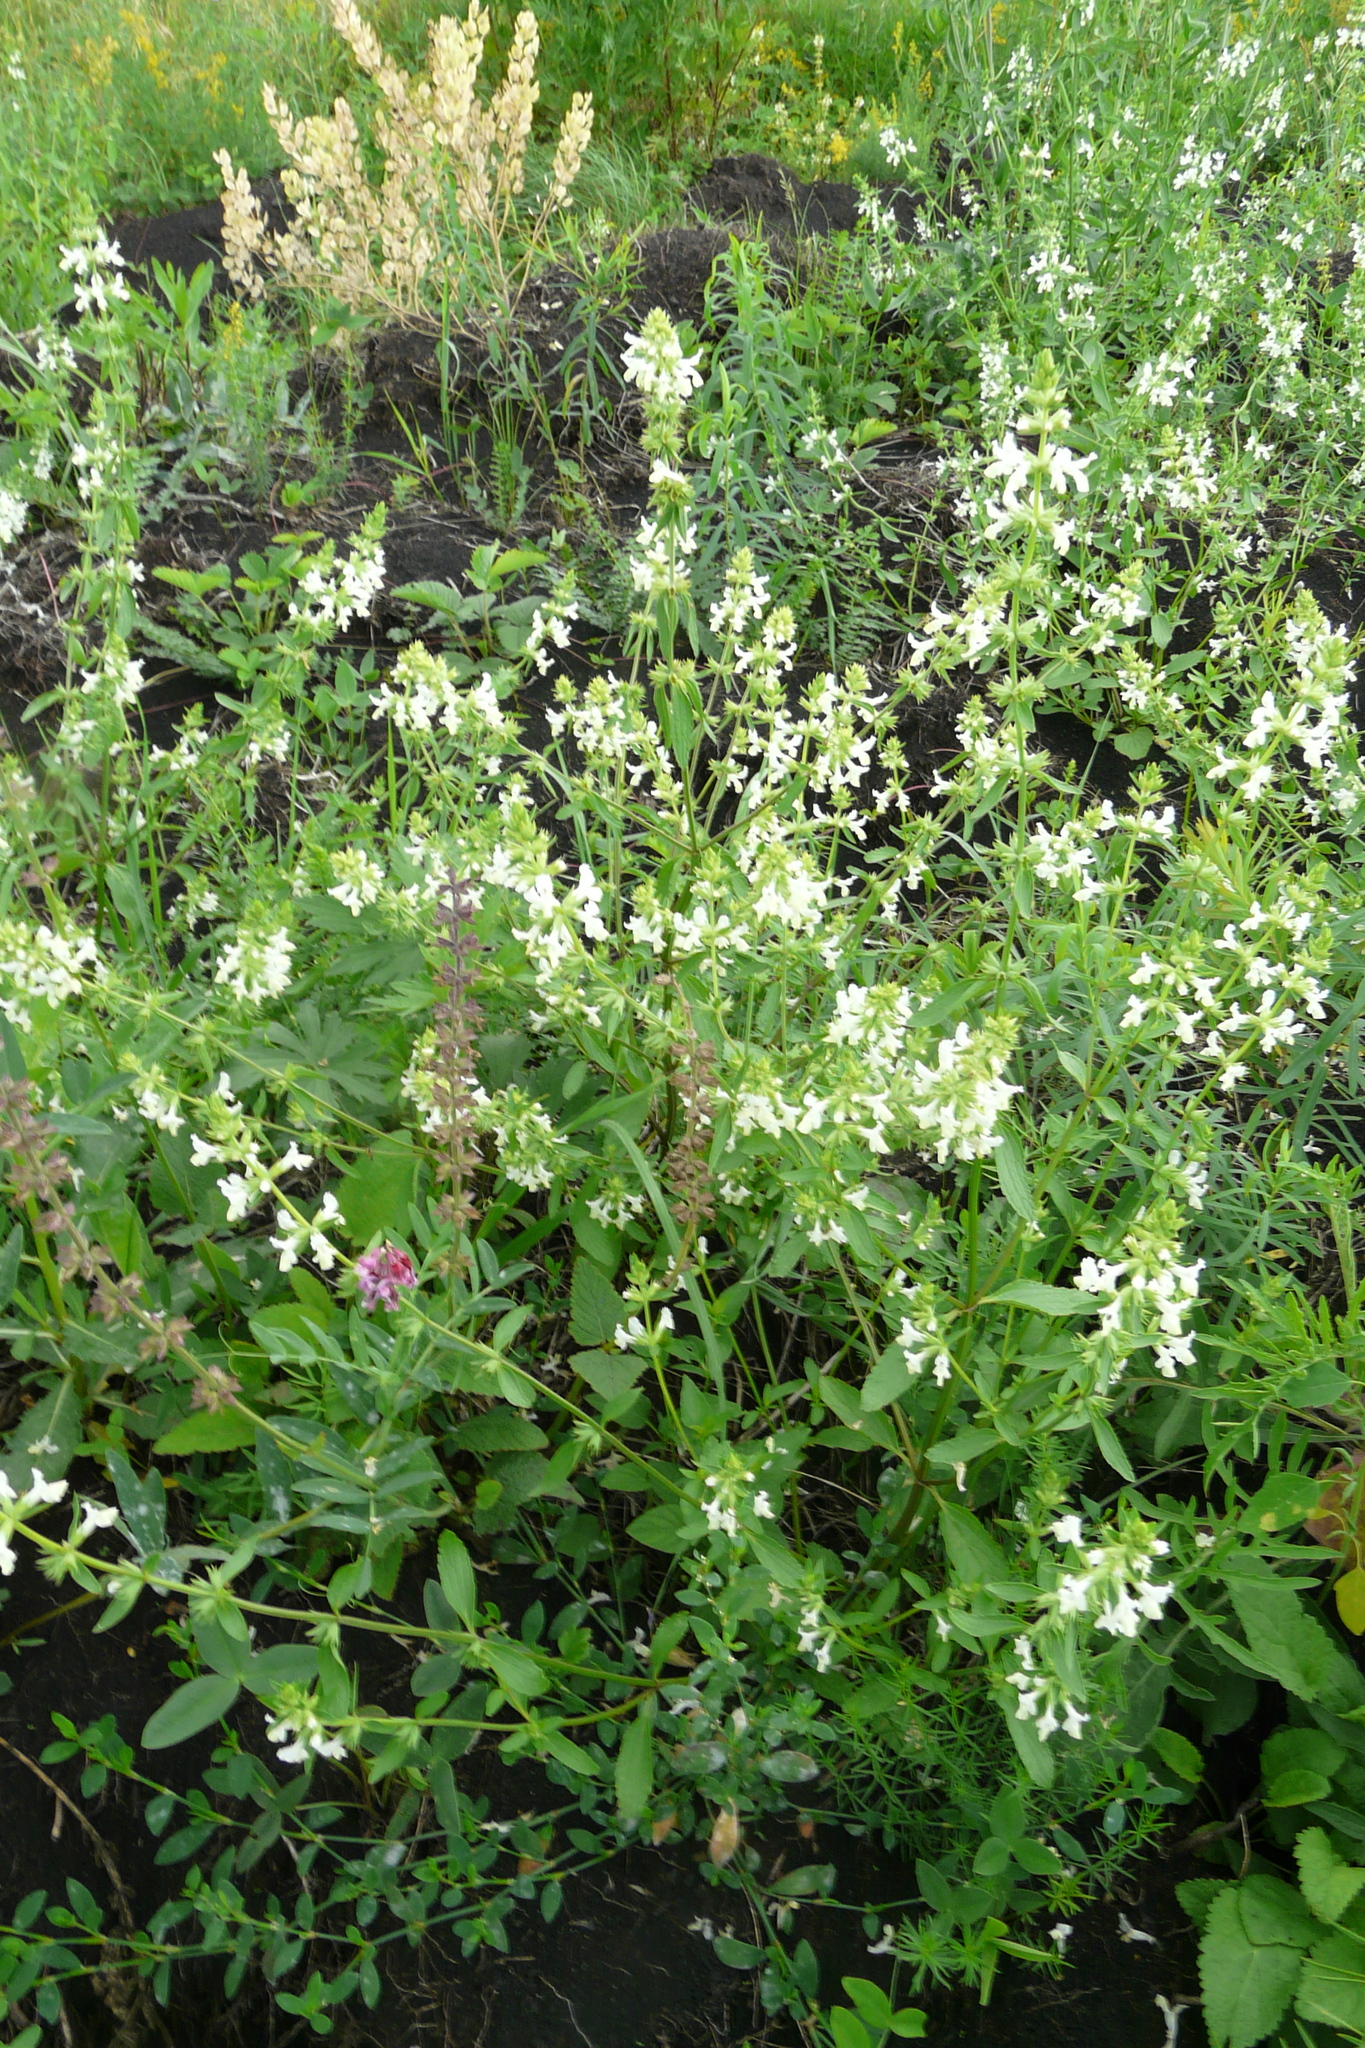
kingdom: Plantae
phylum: Tracheophyta
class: Magnoliopsida
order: Lamiales
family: Lamiaceae
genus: Stachys
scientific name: Stachys annua
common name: Annual yellow-woundwort
